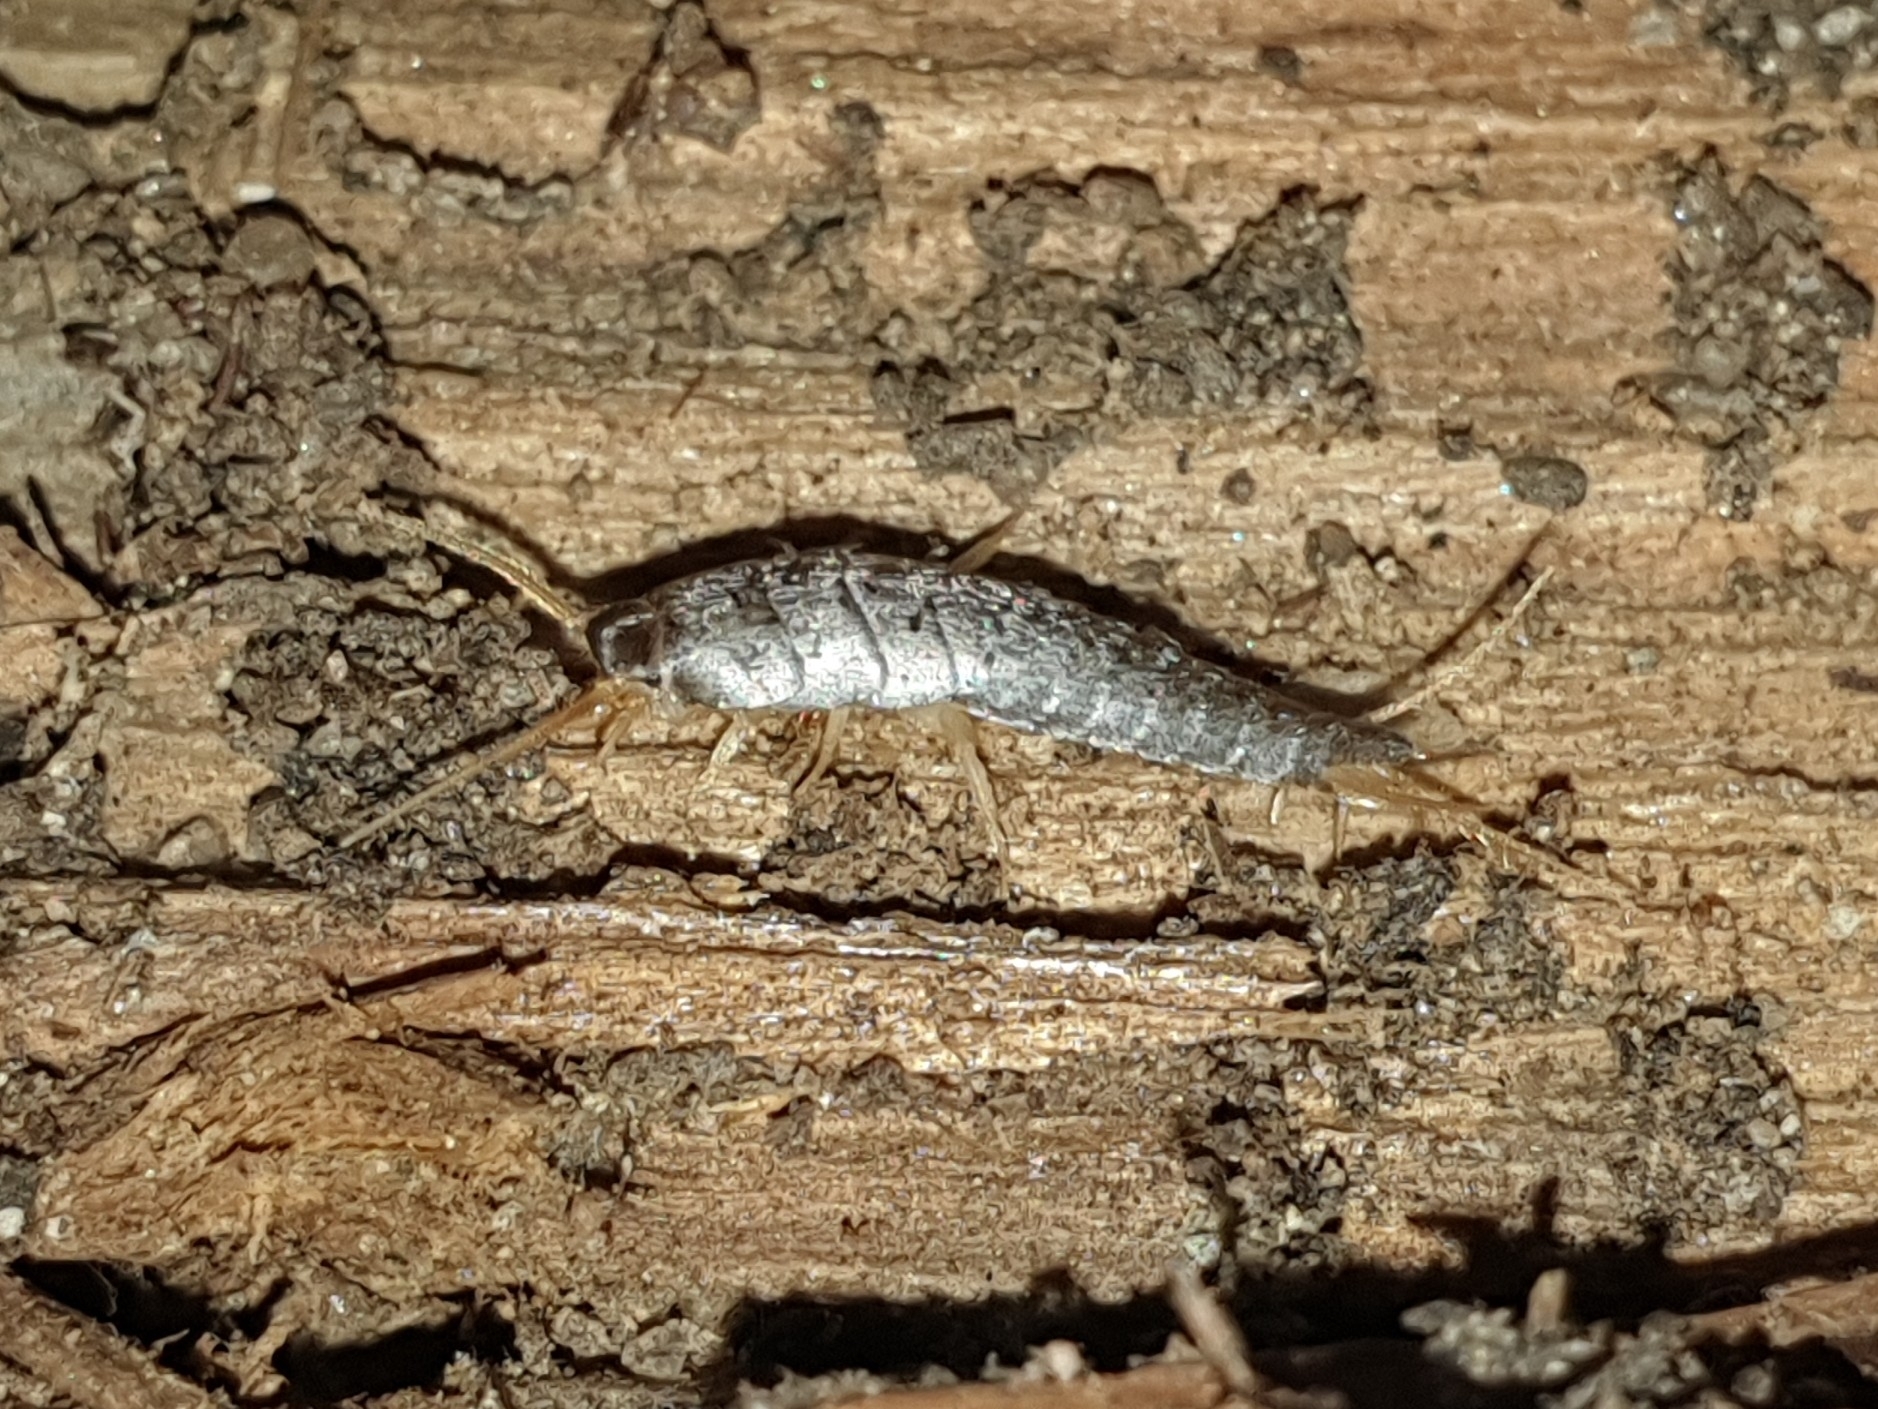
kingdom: Animalia
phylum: Arthropoda
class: Insecta
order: Zygentoma
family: Lepismatidae
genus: Lepisma
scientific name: Lepisma saccharinum
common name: Silverfish
